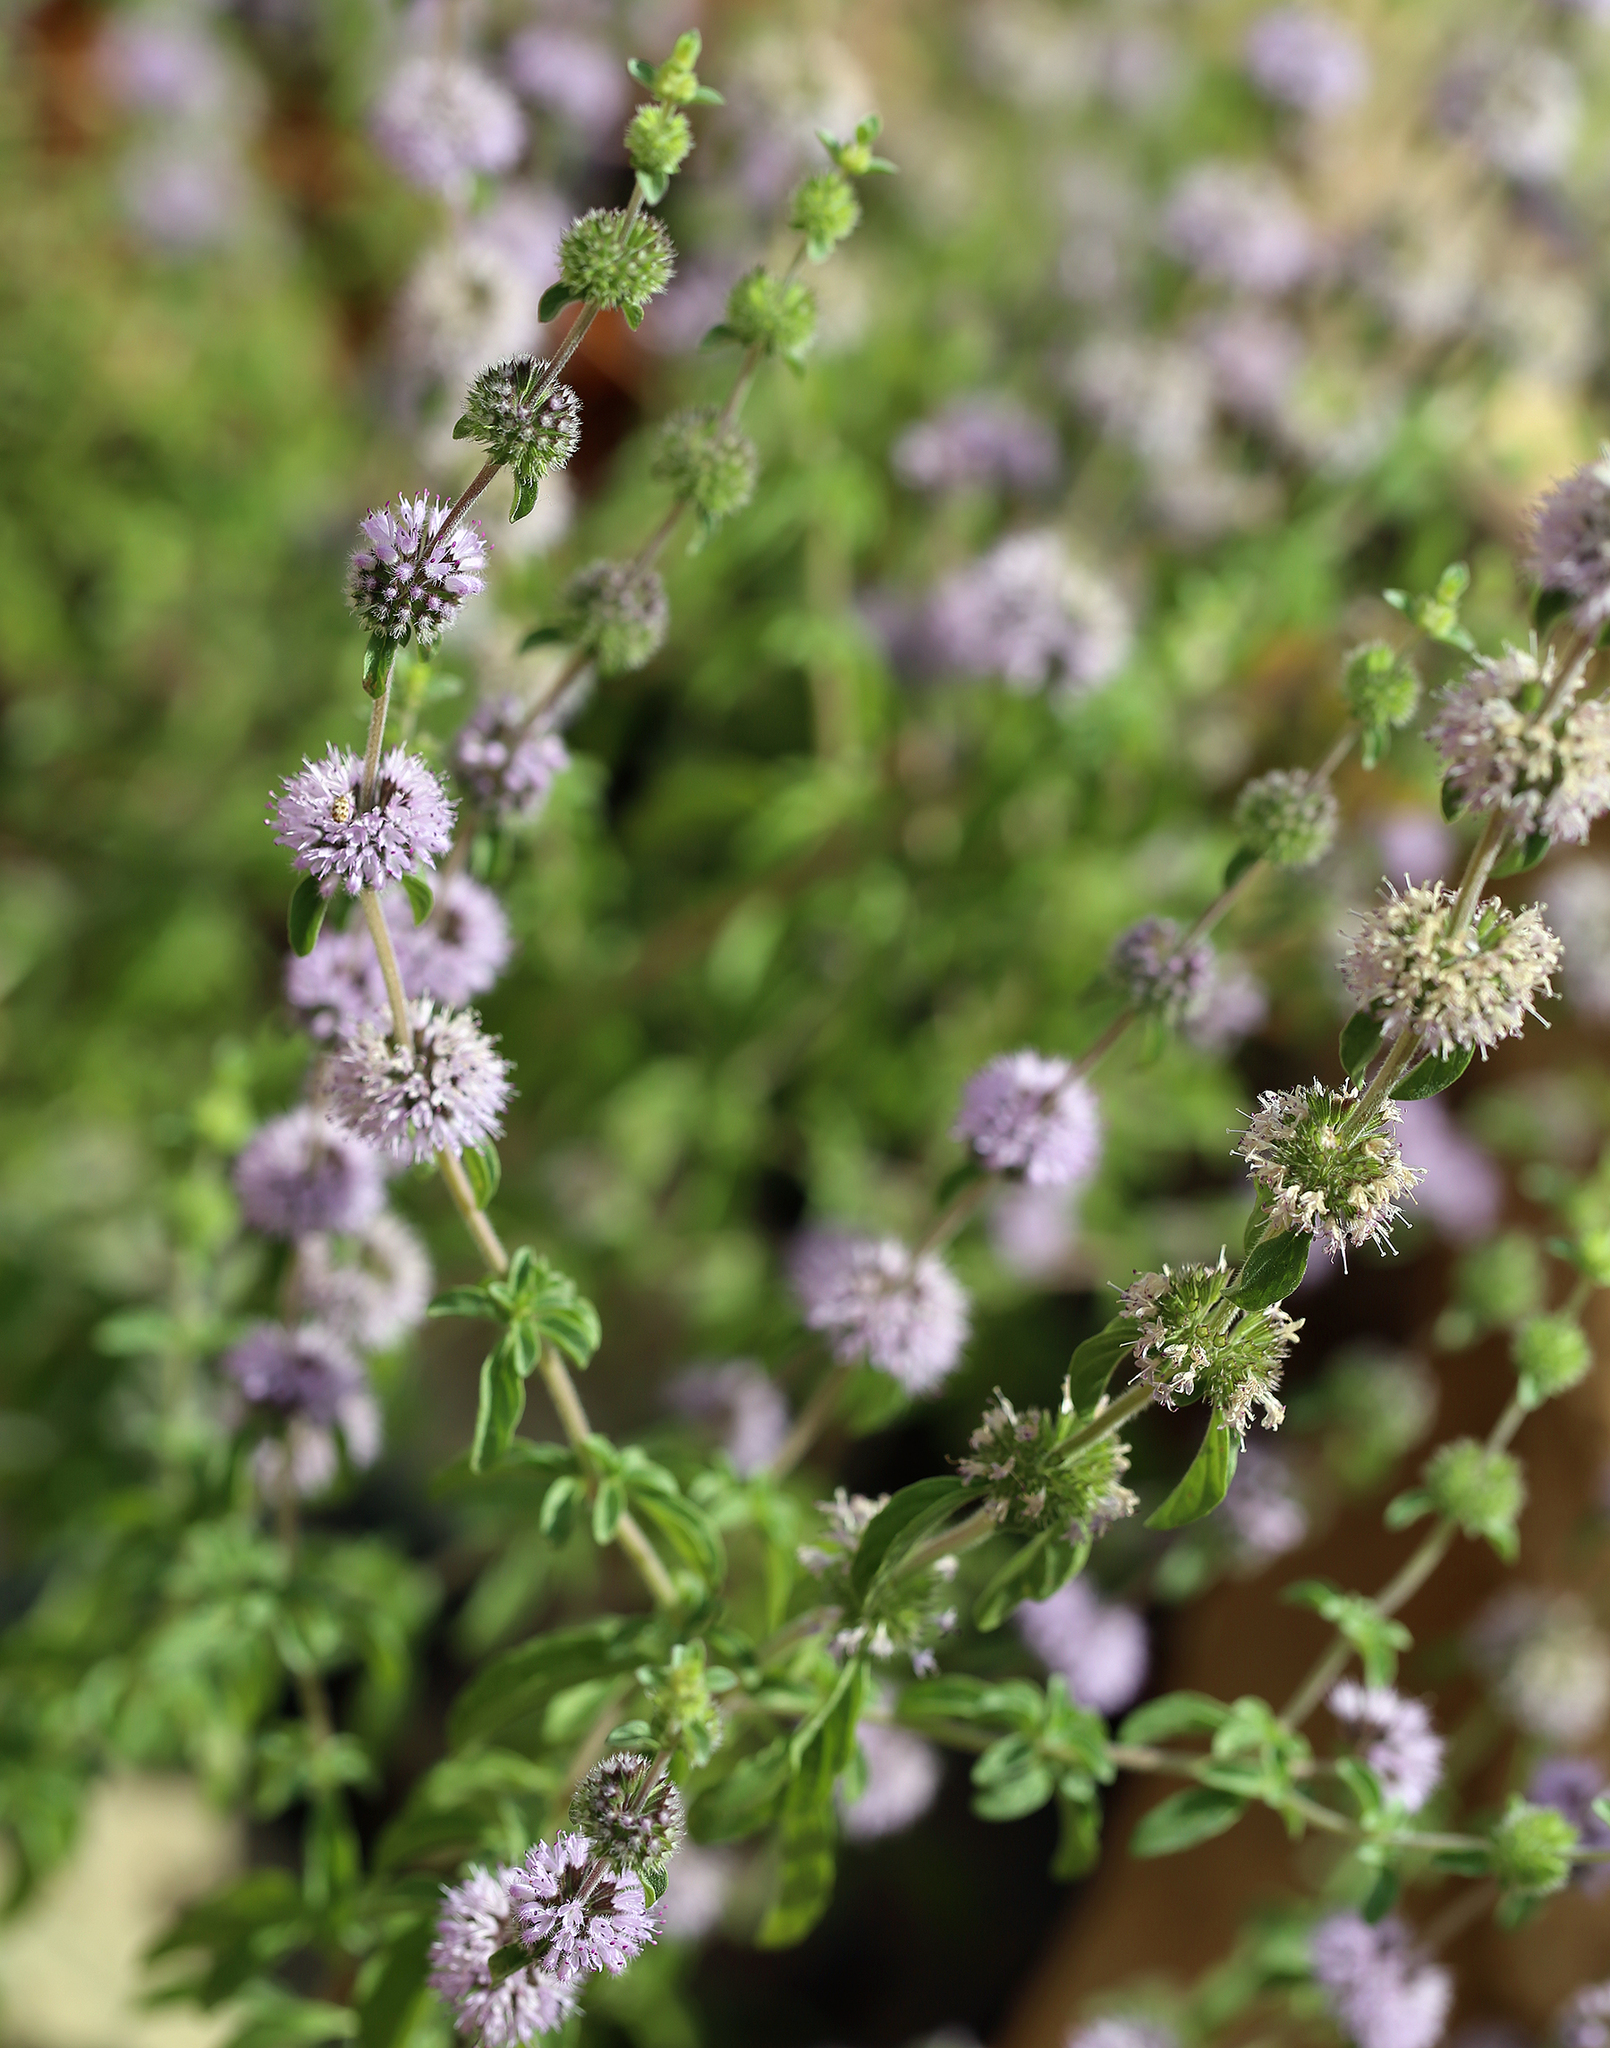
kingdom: Plantae
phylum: Tracheophyta
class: Magnoliopsida
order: Lamiales
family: Lamiaceae
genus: Mentha
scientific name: Mentha pulegium
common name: Pennyroyal
